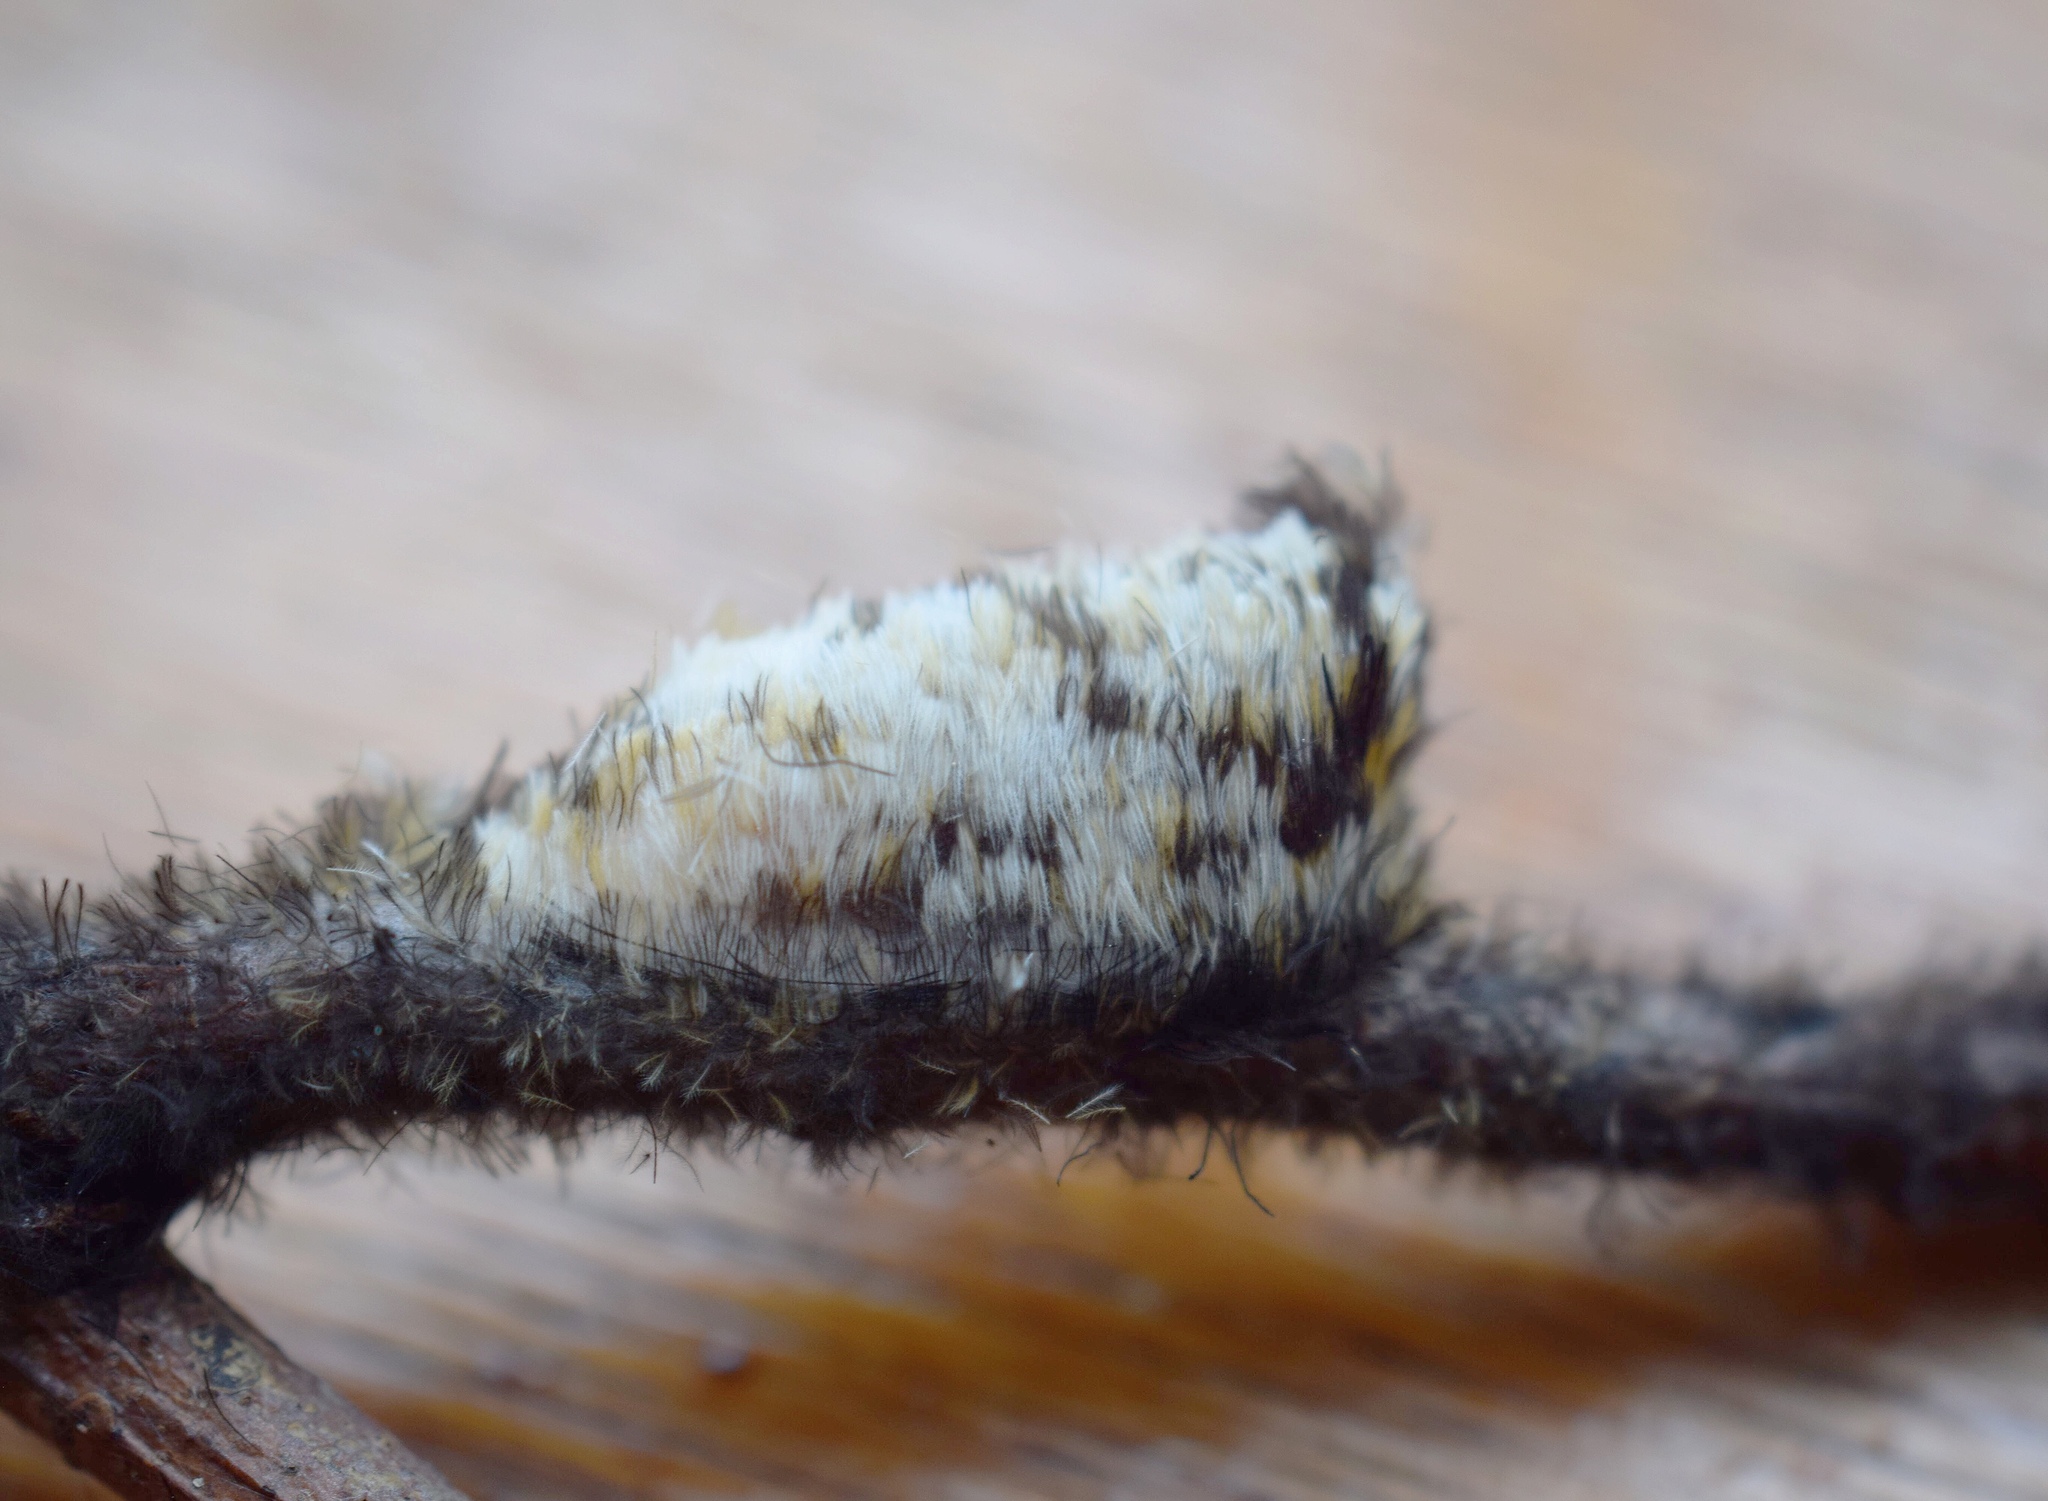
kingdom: Animalia
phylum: Arthropoda
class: Insecta
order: Lepidoptera
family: Erebidae
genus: Euchromia
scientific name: Euchromia amoena
